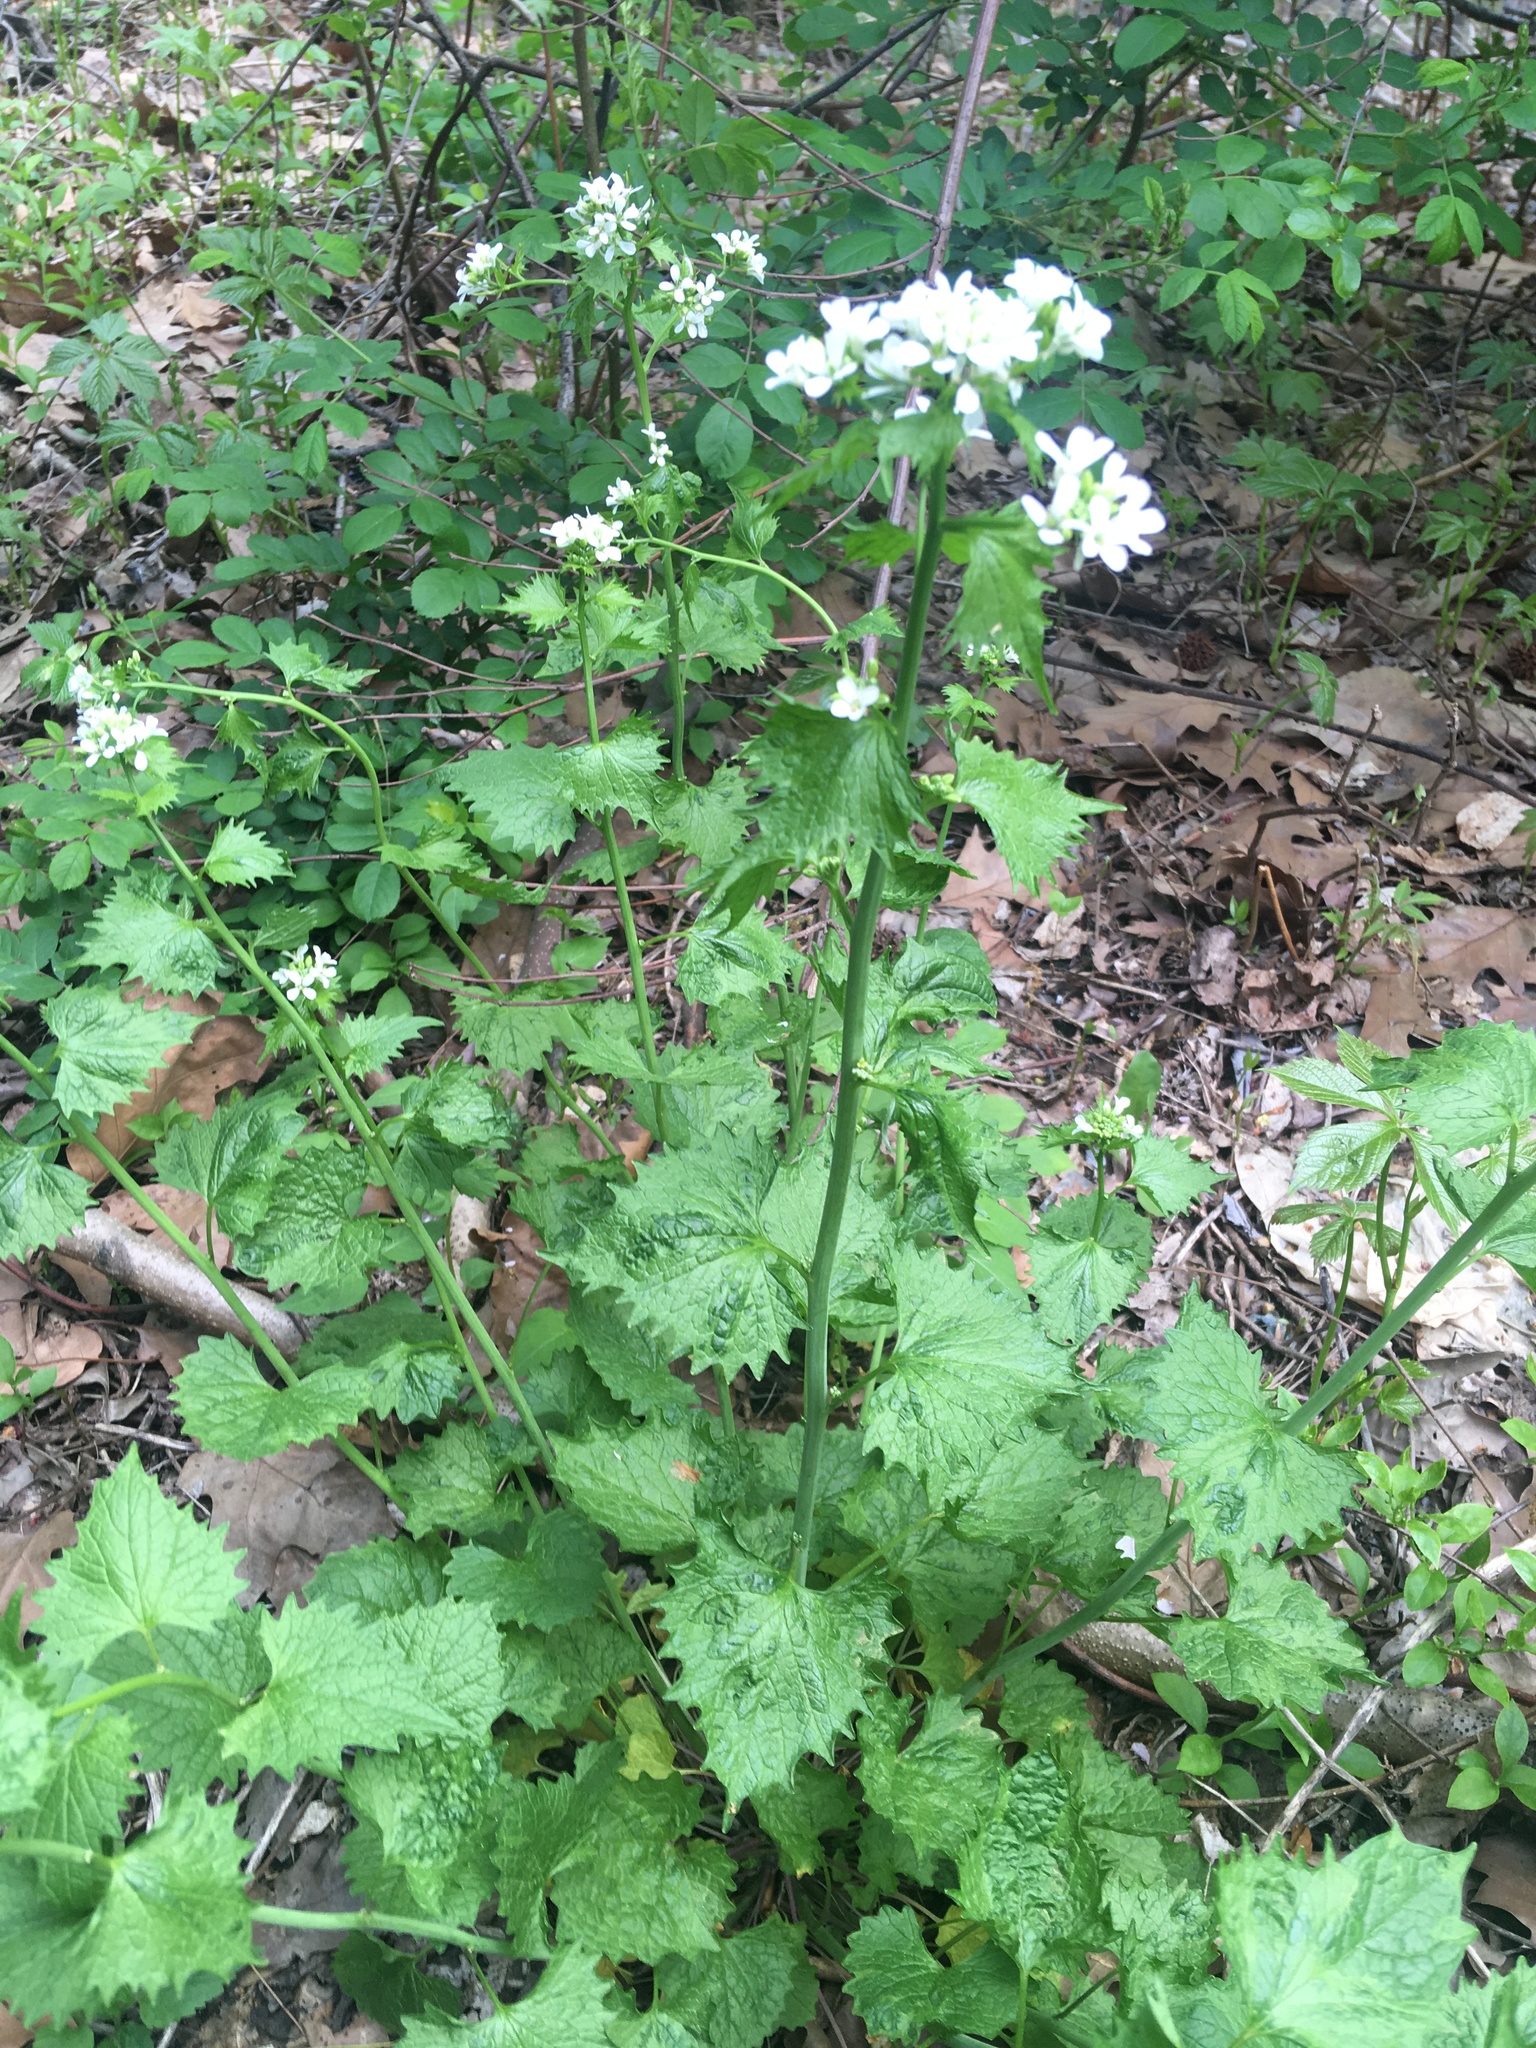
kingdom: Plantae
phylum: Tracheophyta
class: Magnoliopsida
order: Brassicales
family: Brassicaceae
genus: Alliaria
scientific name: Alliaria petiolata
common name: Garlic mustard
